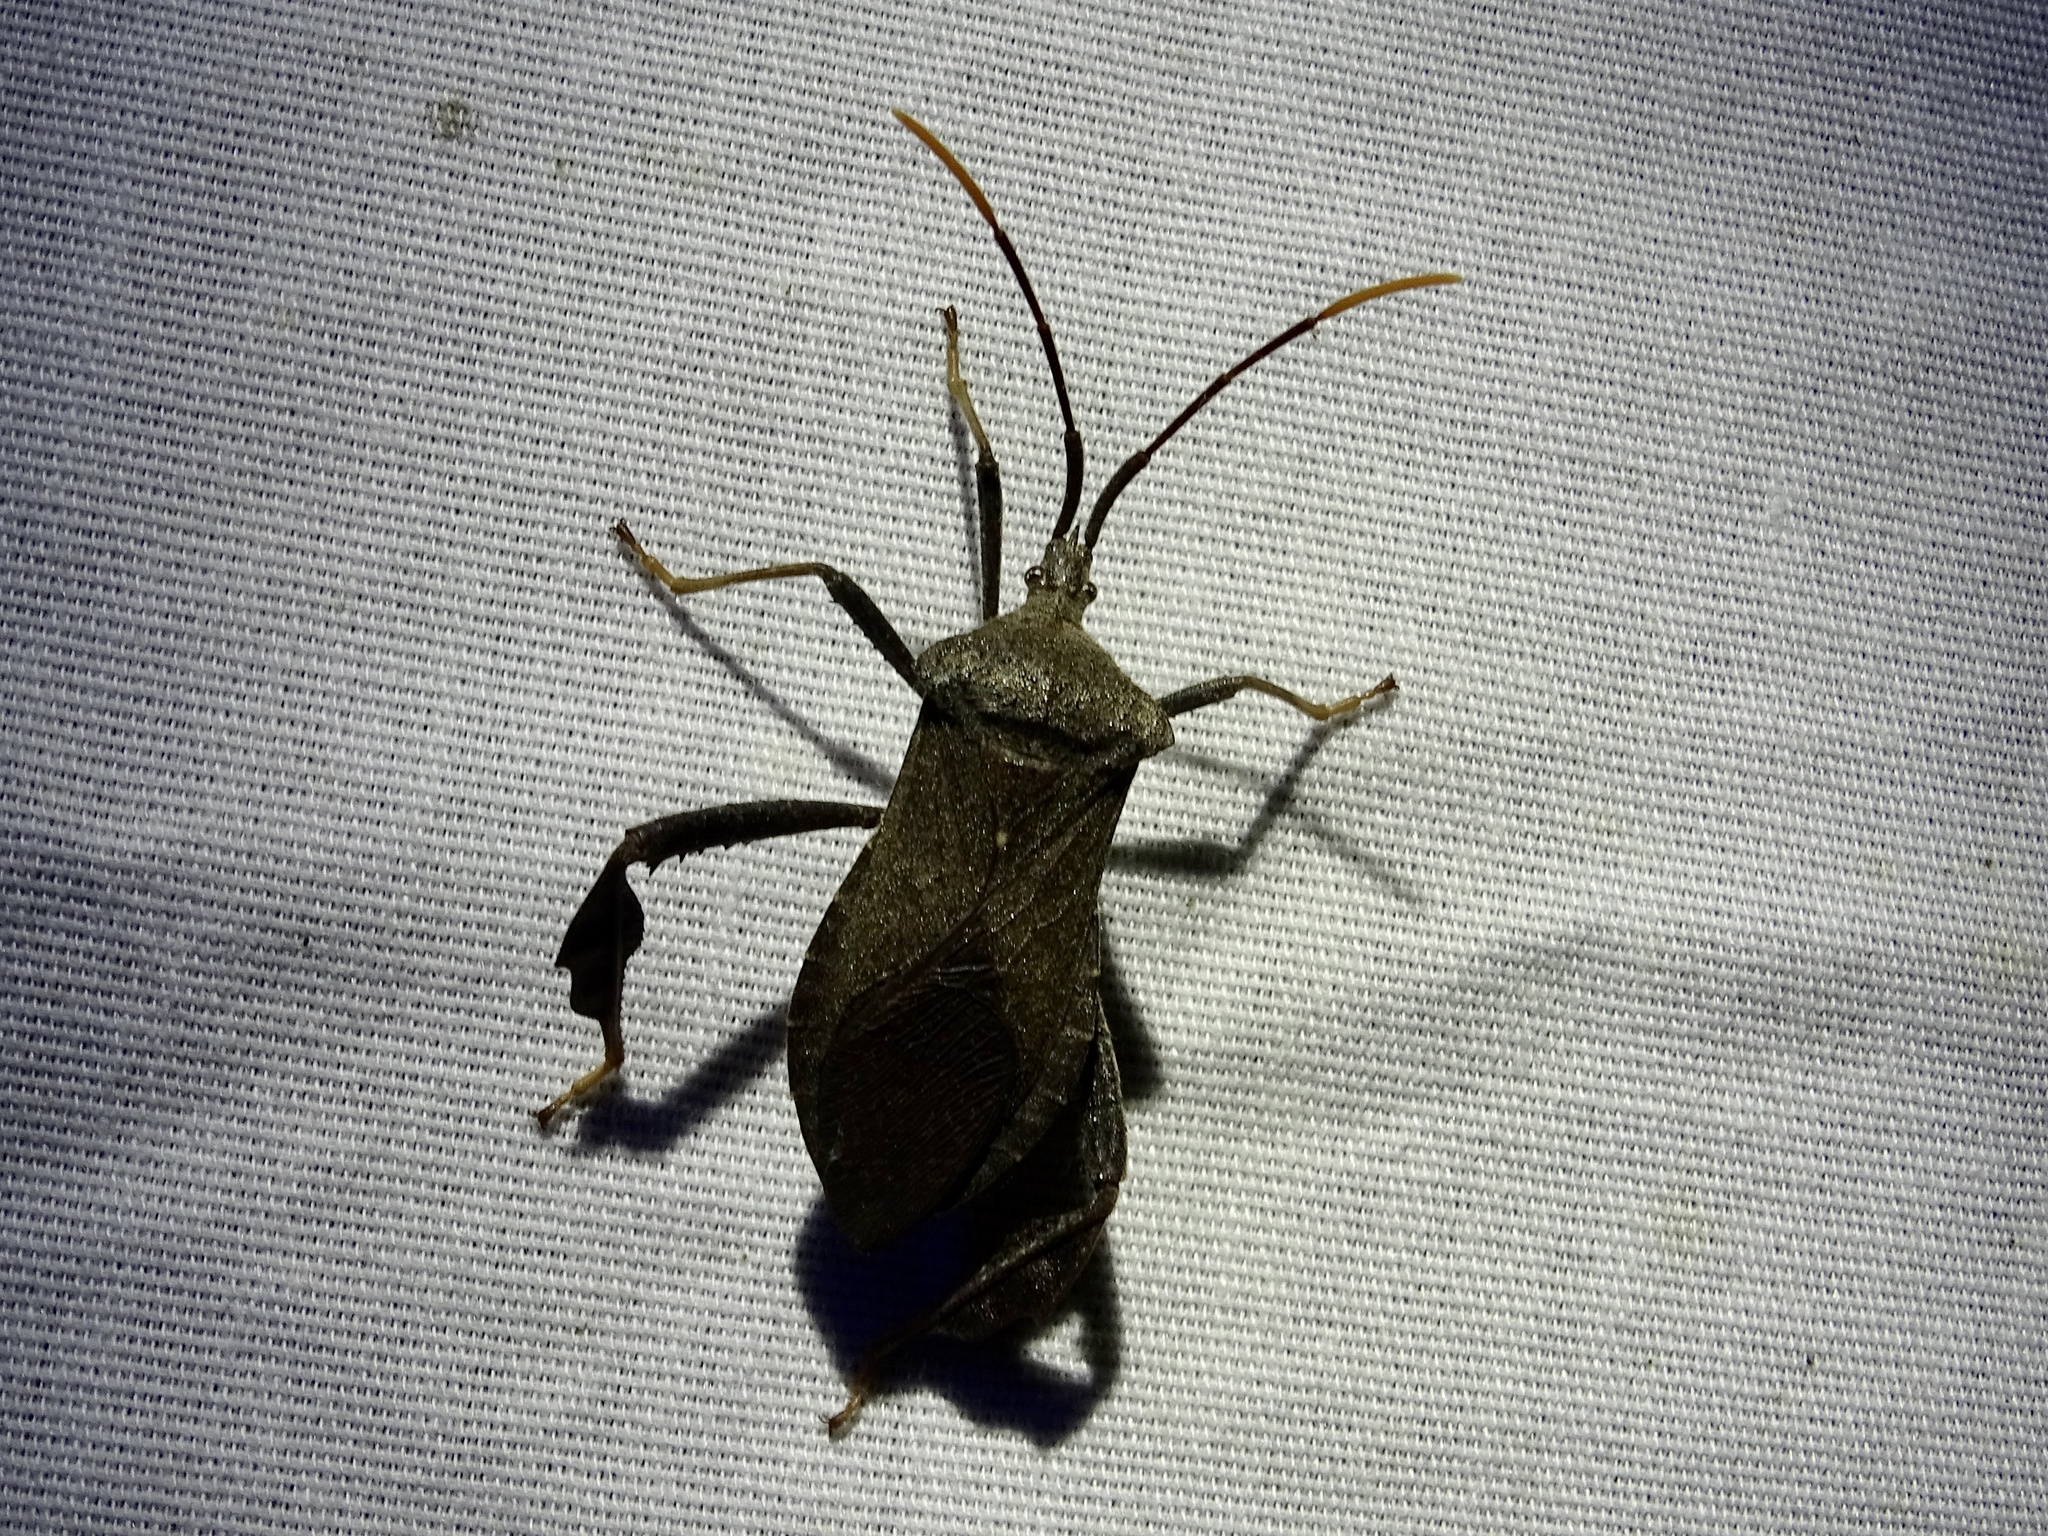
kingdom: Animalia
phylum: Arthropoda
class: Insecta
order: Hemiptera
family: Coreidae
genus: Acanthocephala
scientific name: Acanthocephala terminalis
